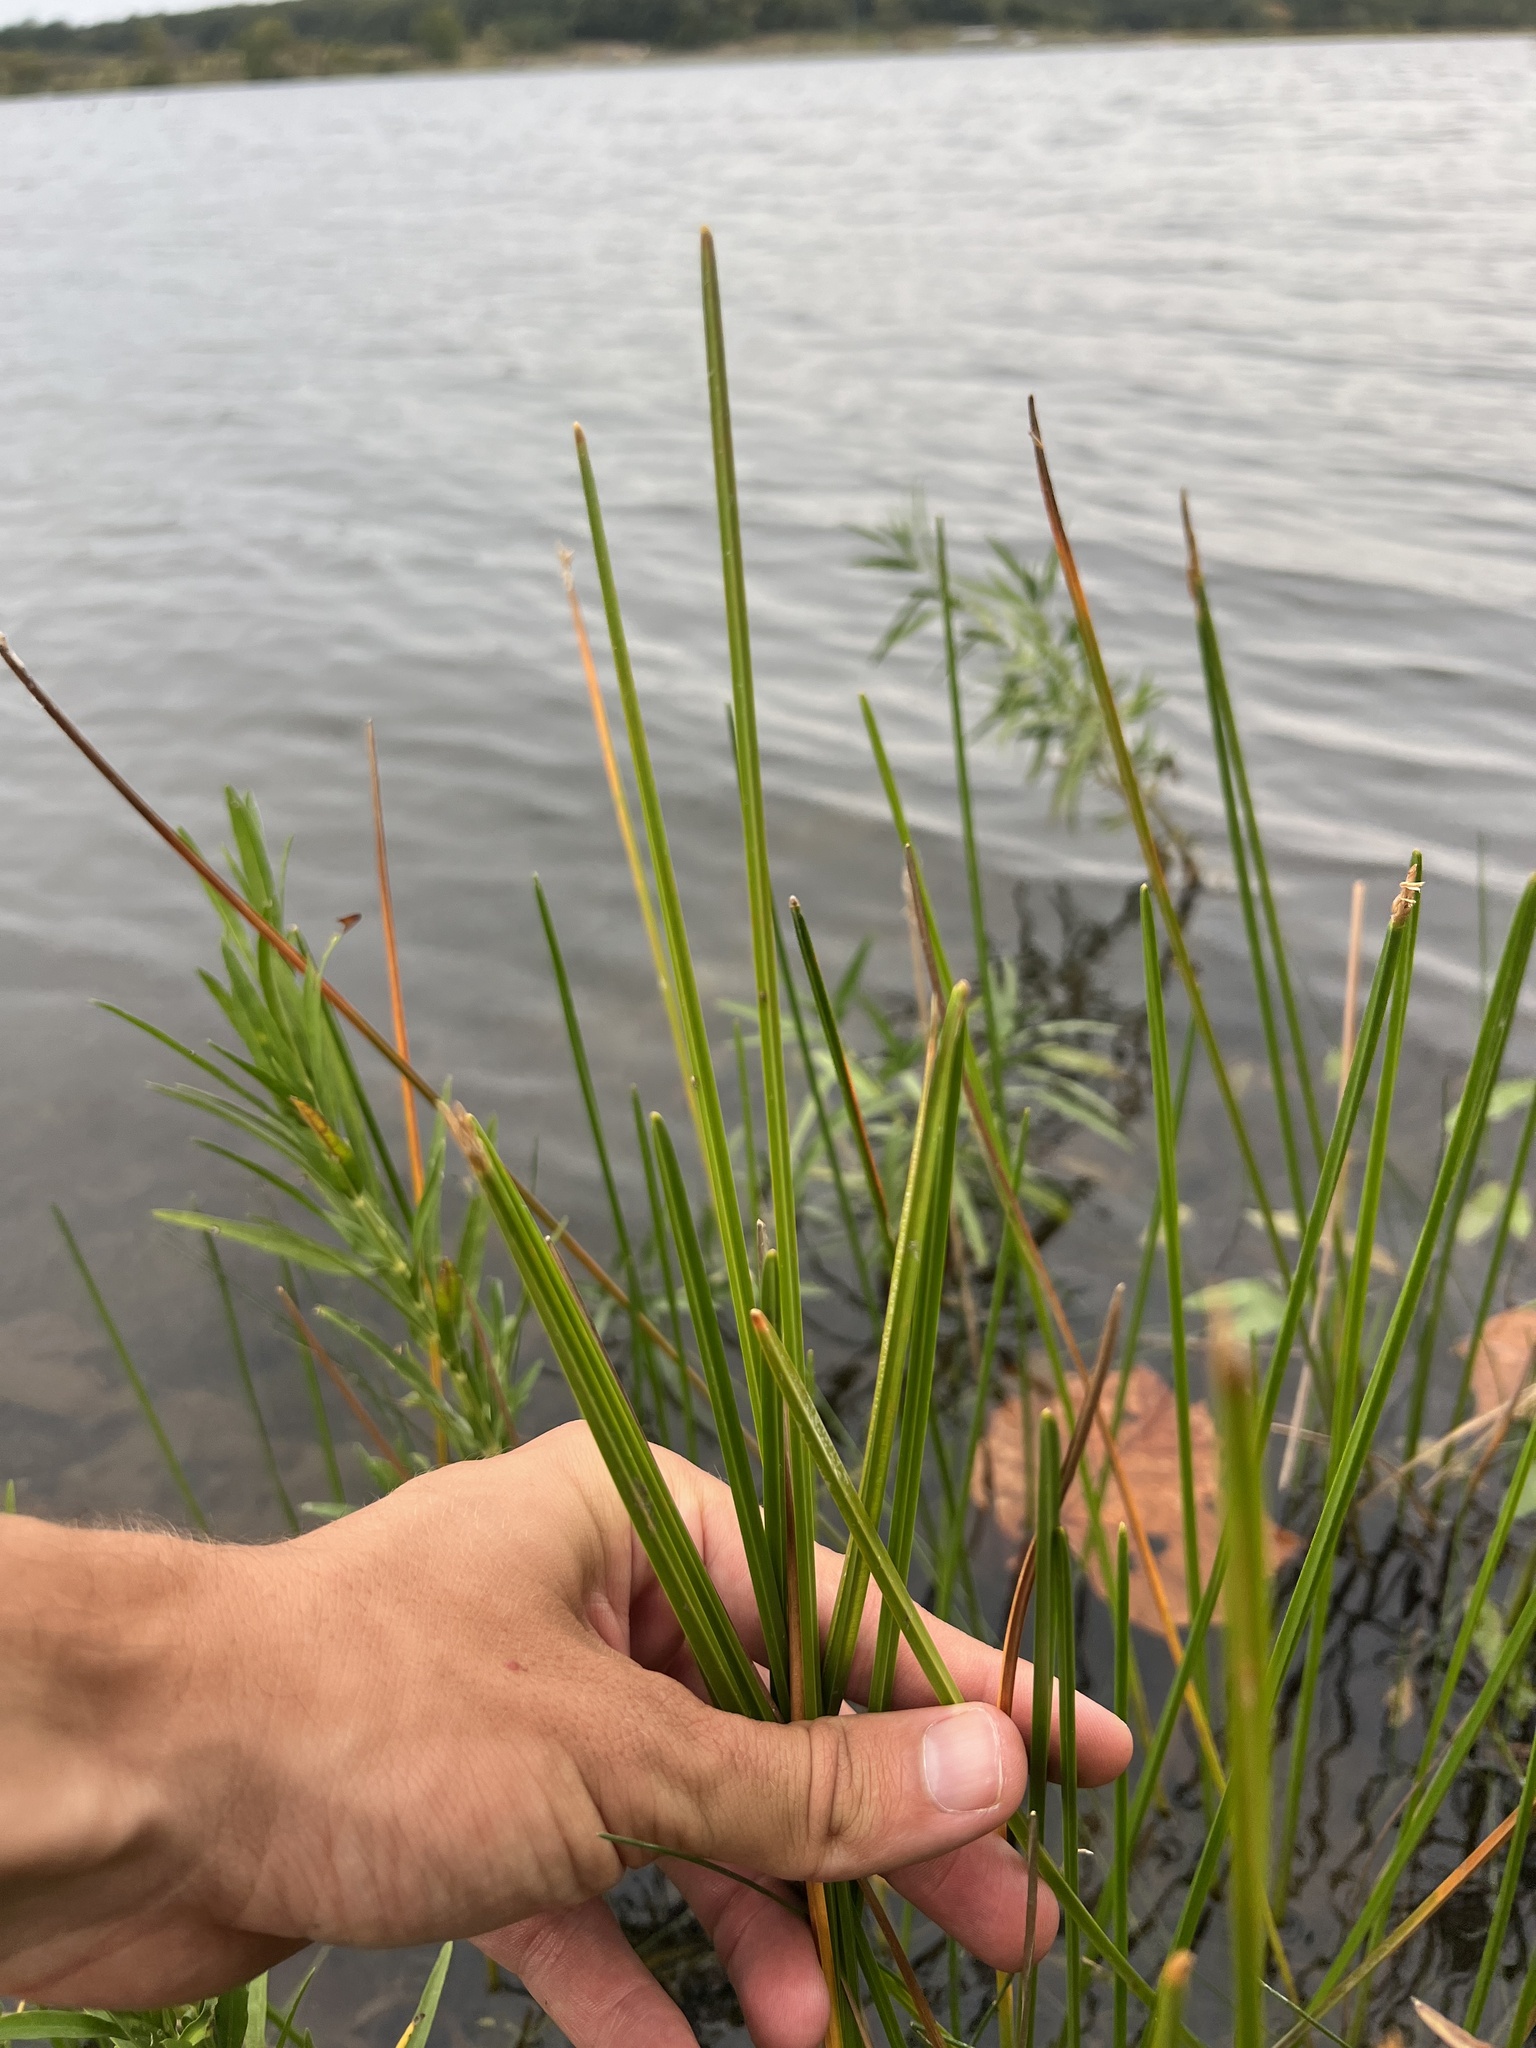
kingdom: Plantae
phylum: Tracheophyta
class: Liliopsida
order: Poales
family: Cyperaceae
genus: Eleocharis
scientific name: Eleocharis quadrangulata
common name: Square-stem spike-rush
